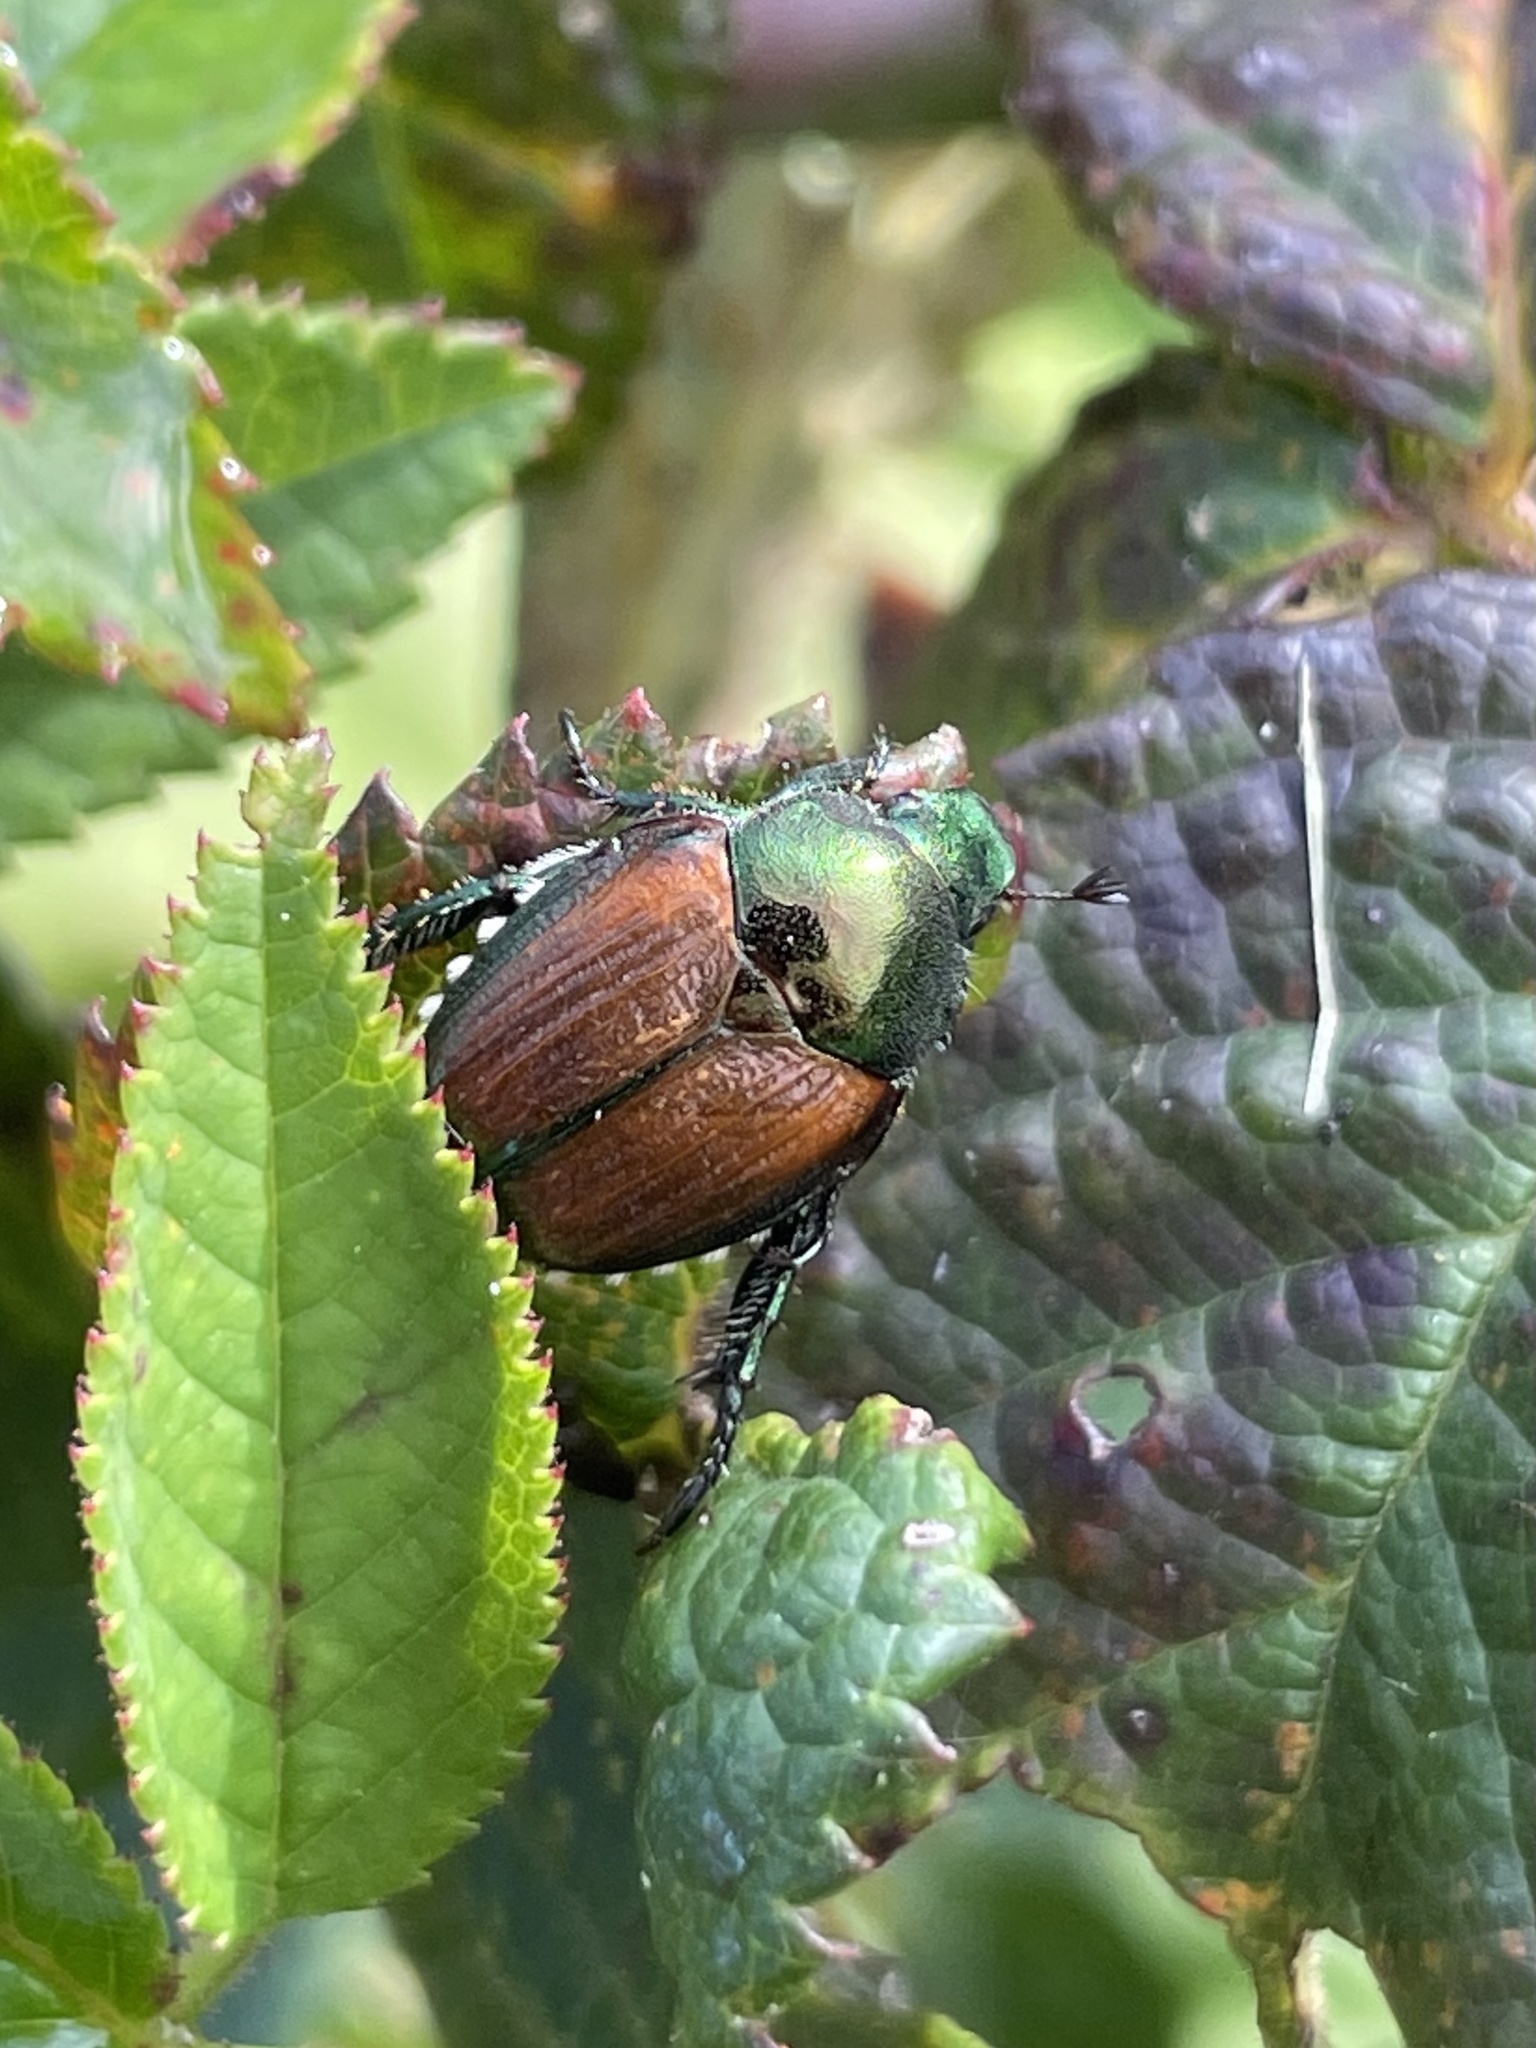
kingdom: Animalia
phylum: Arthropoda
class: Insecta
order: Coleoptera
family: Scarabaeidae
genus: Popillia
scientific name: Popillia japonica
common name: Japanese beetle
